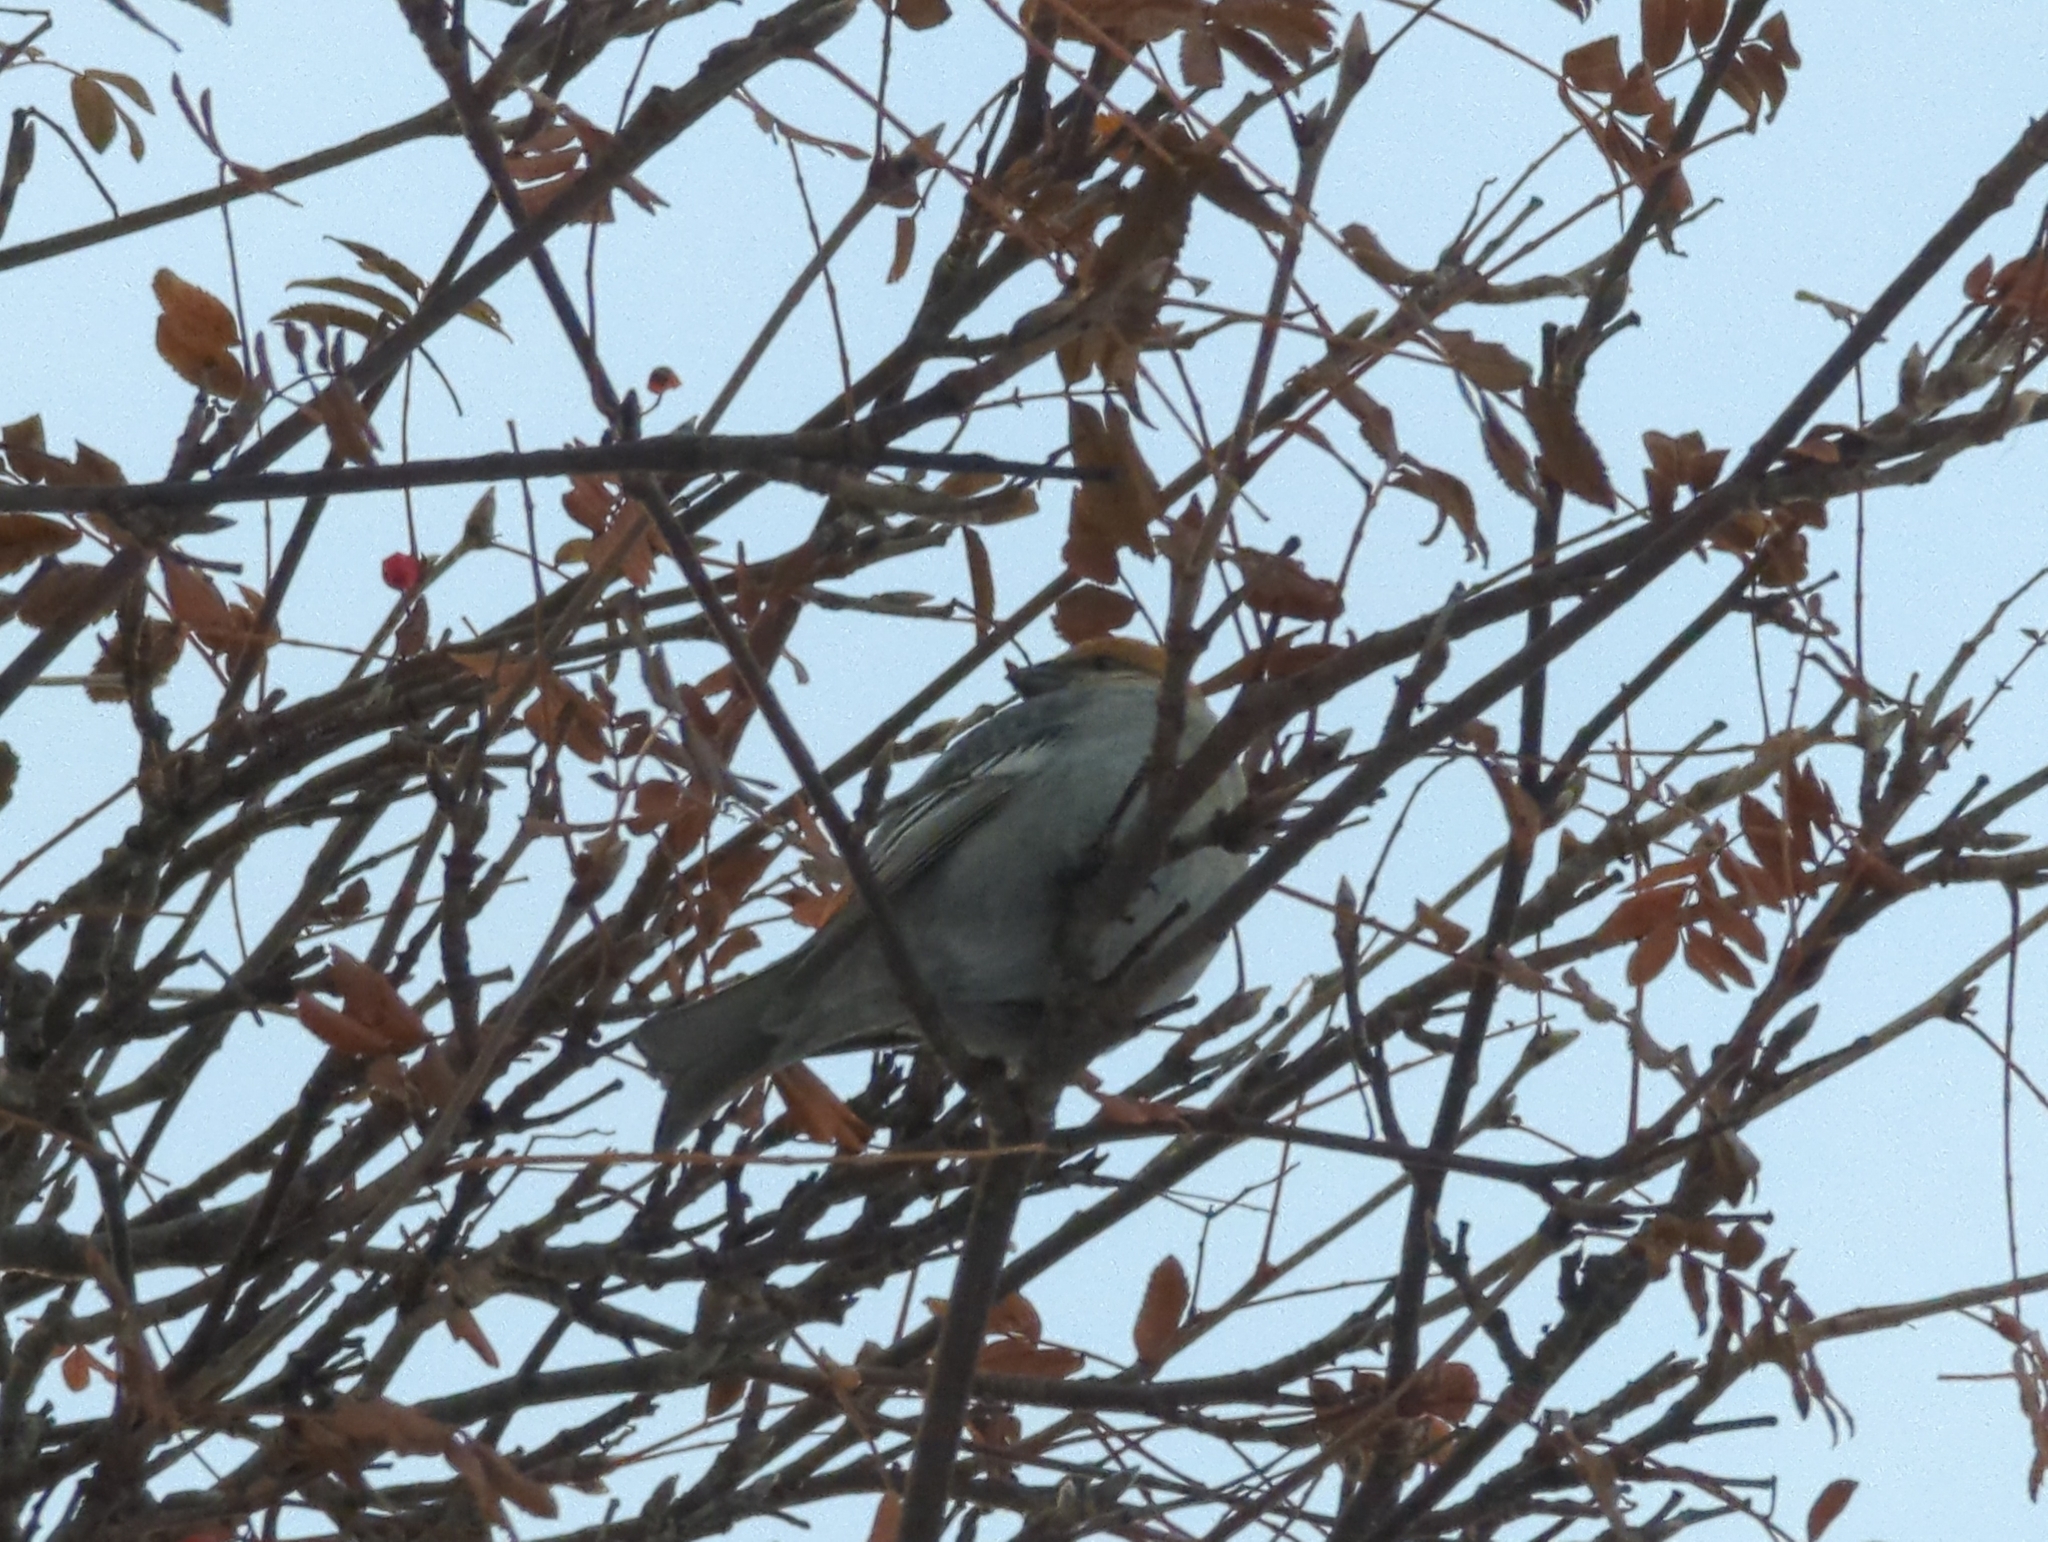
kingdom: Animalia
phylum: Chordata
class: Aves
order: Passeriformes
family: Fringillidae
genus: Pinicola
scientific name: Pinicola enucleator
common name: Pine grosbeak
